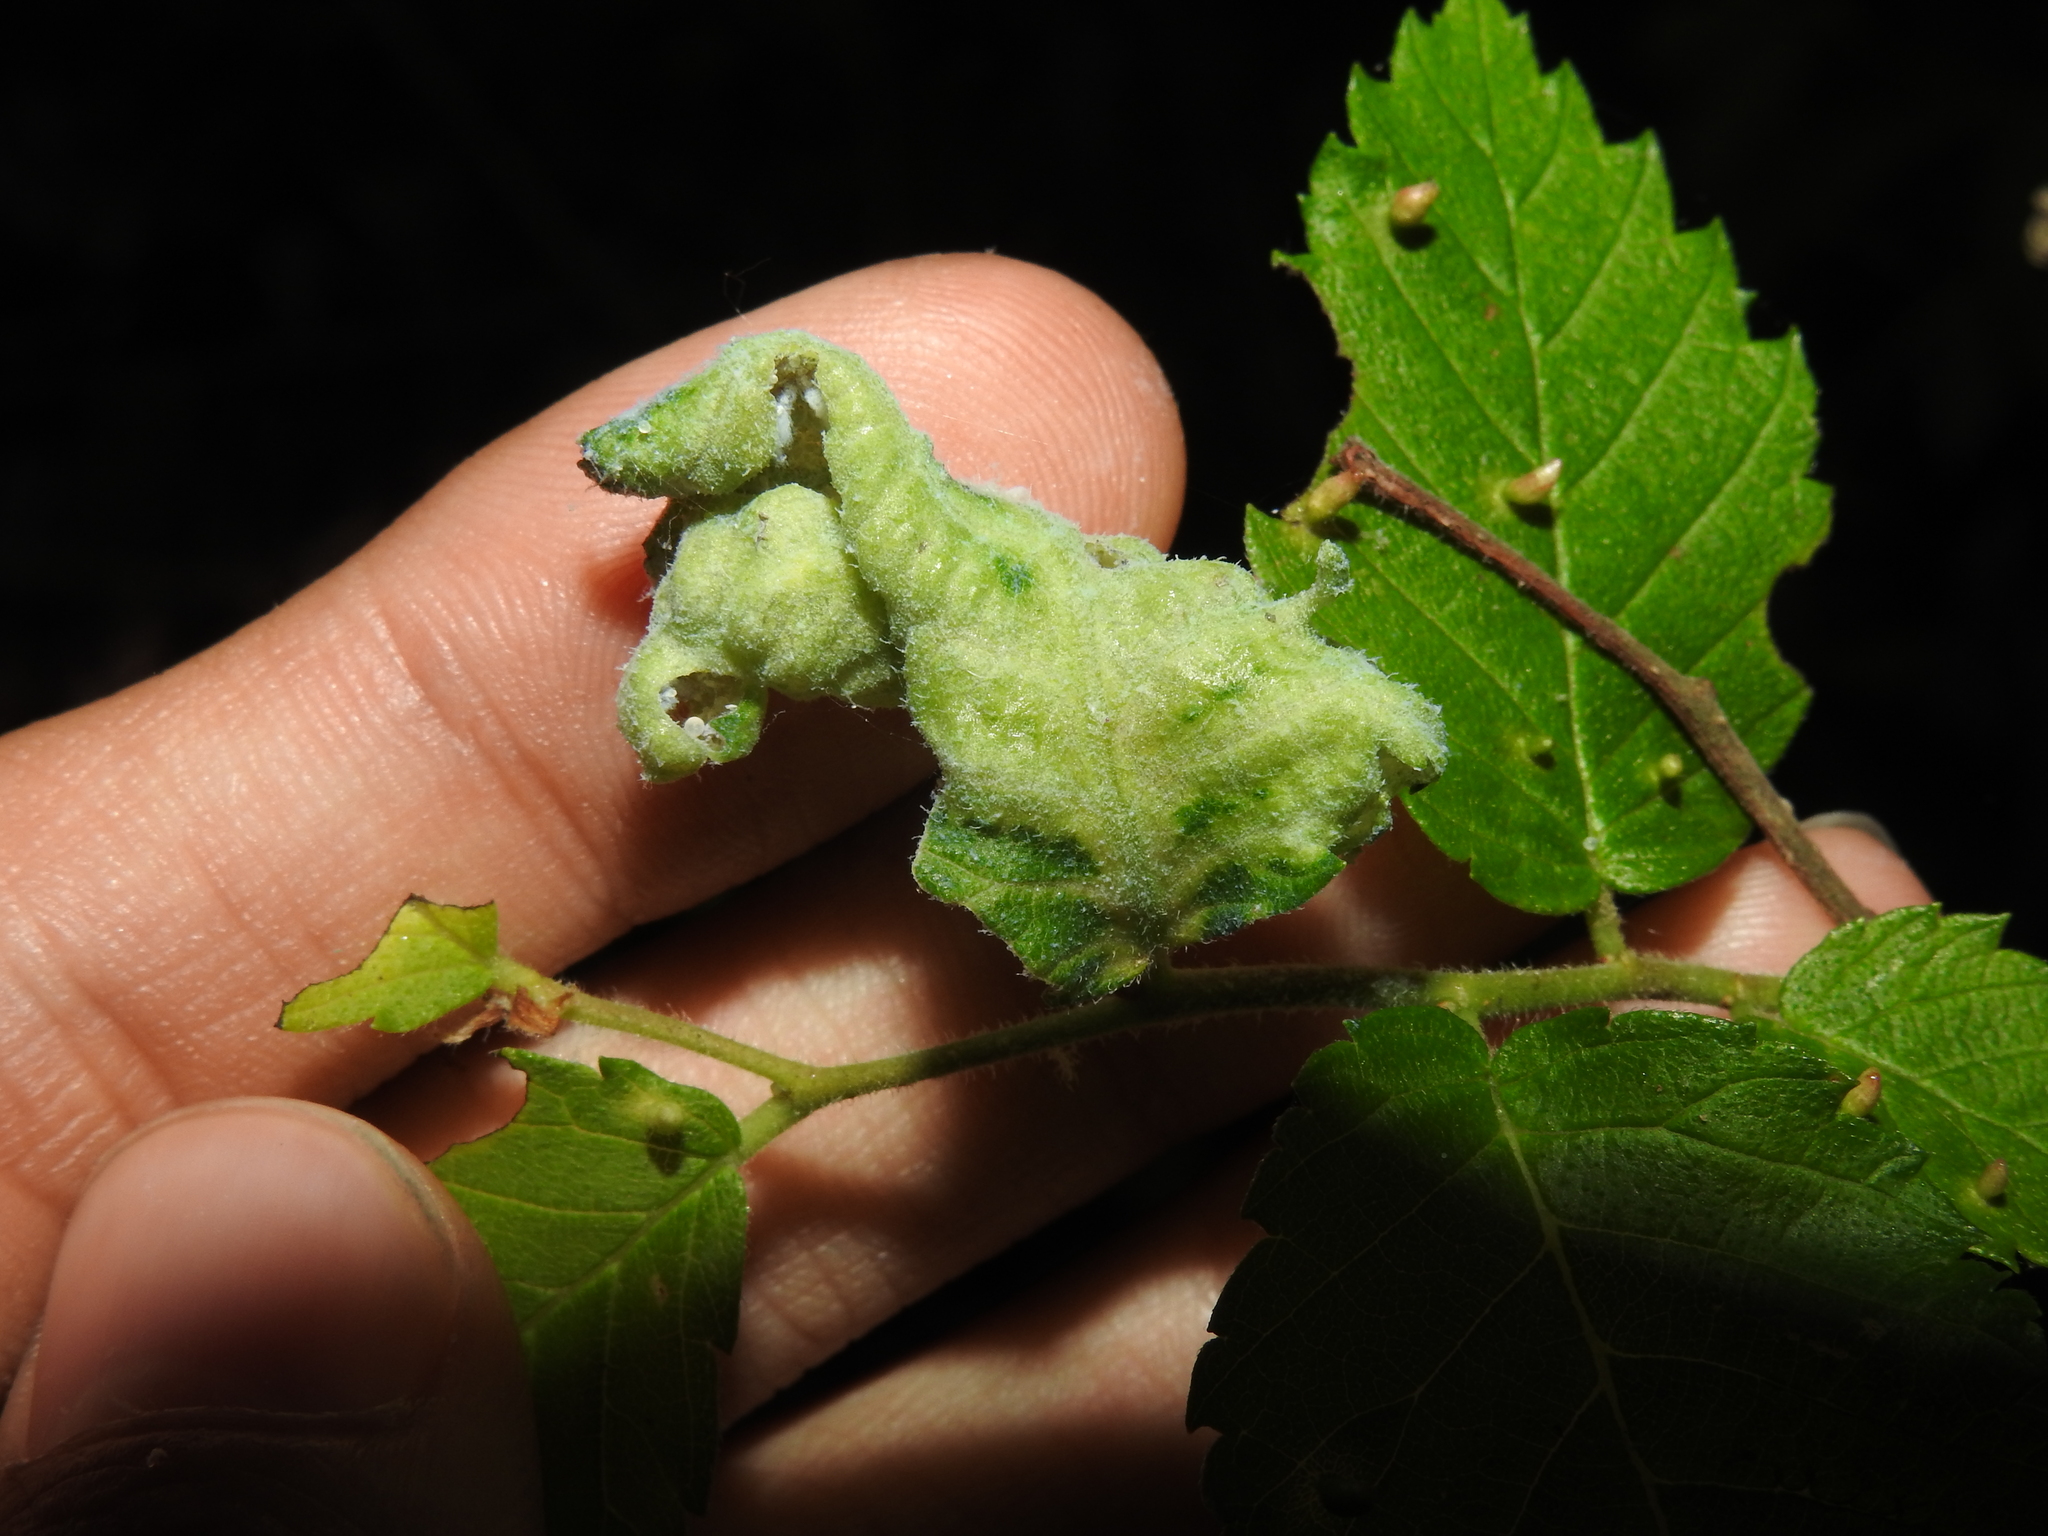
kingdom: Animalia
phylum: Arthropoda
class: Insecta
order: Hemiptera
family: Aphididae
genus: Eriosoma
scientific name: Eriosoma americanum
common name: Woolly elm aphid
